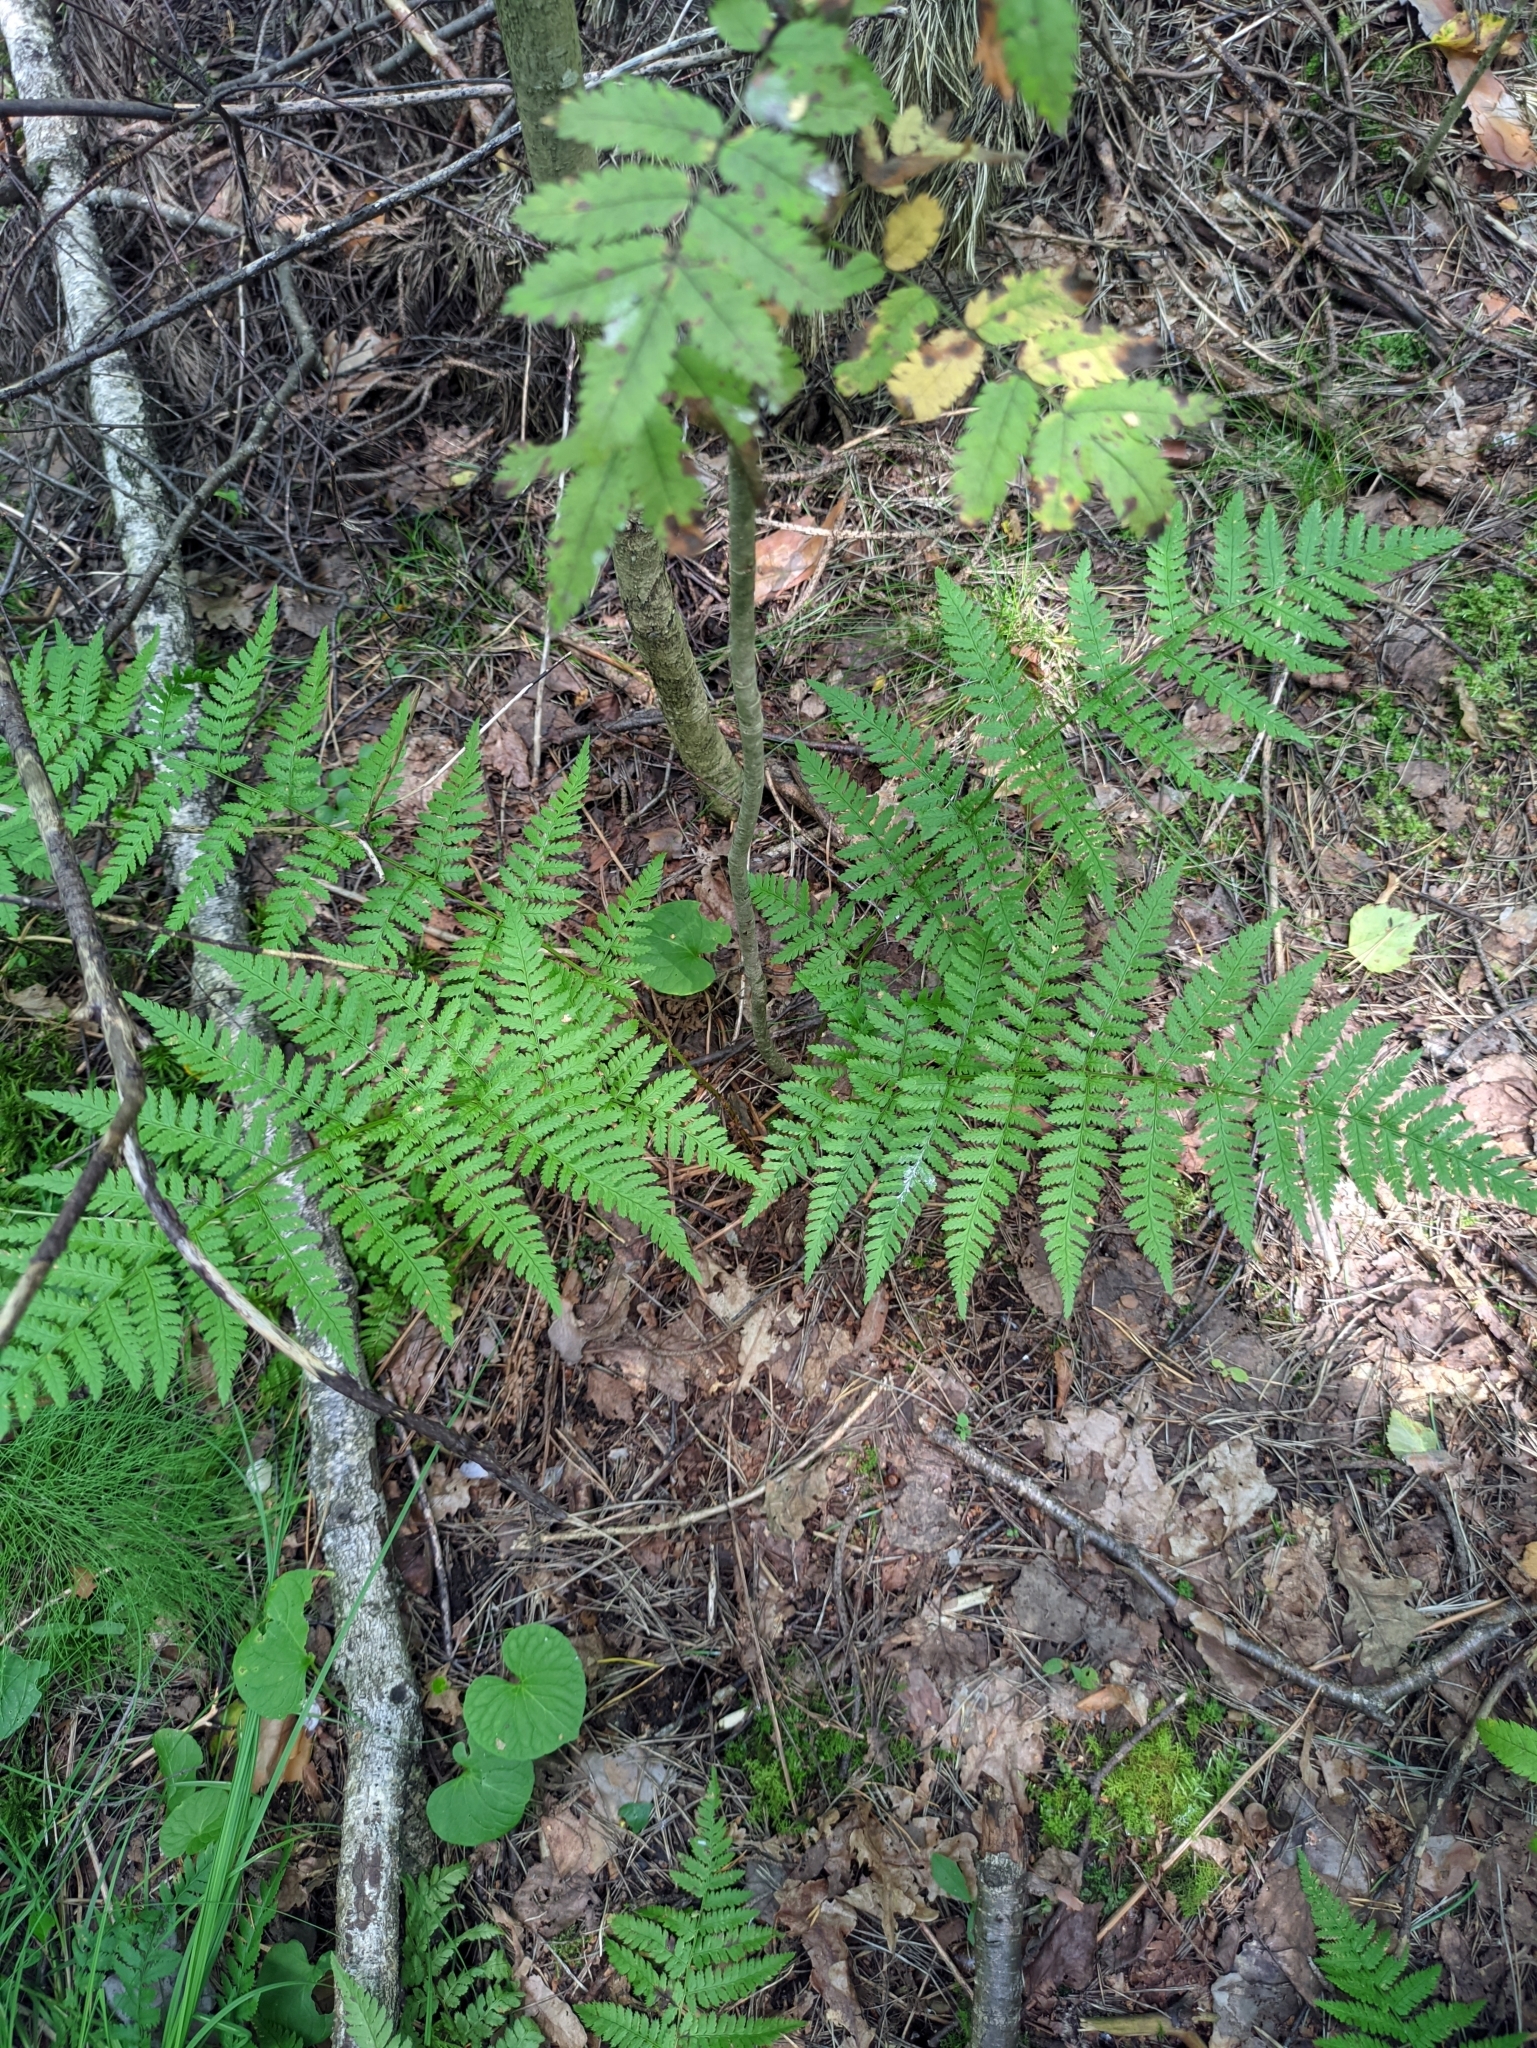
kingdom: Plantae
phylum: Tracheophyta
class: Polypodiopsida
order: Polypodiales
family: Dryopteridaceae
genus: Dryopteris
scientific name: Dryopteris carthusiana
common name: Narrow buckler-fern
